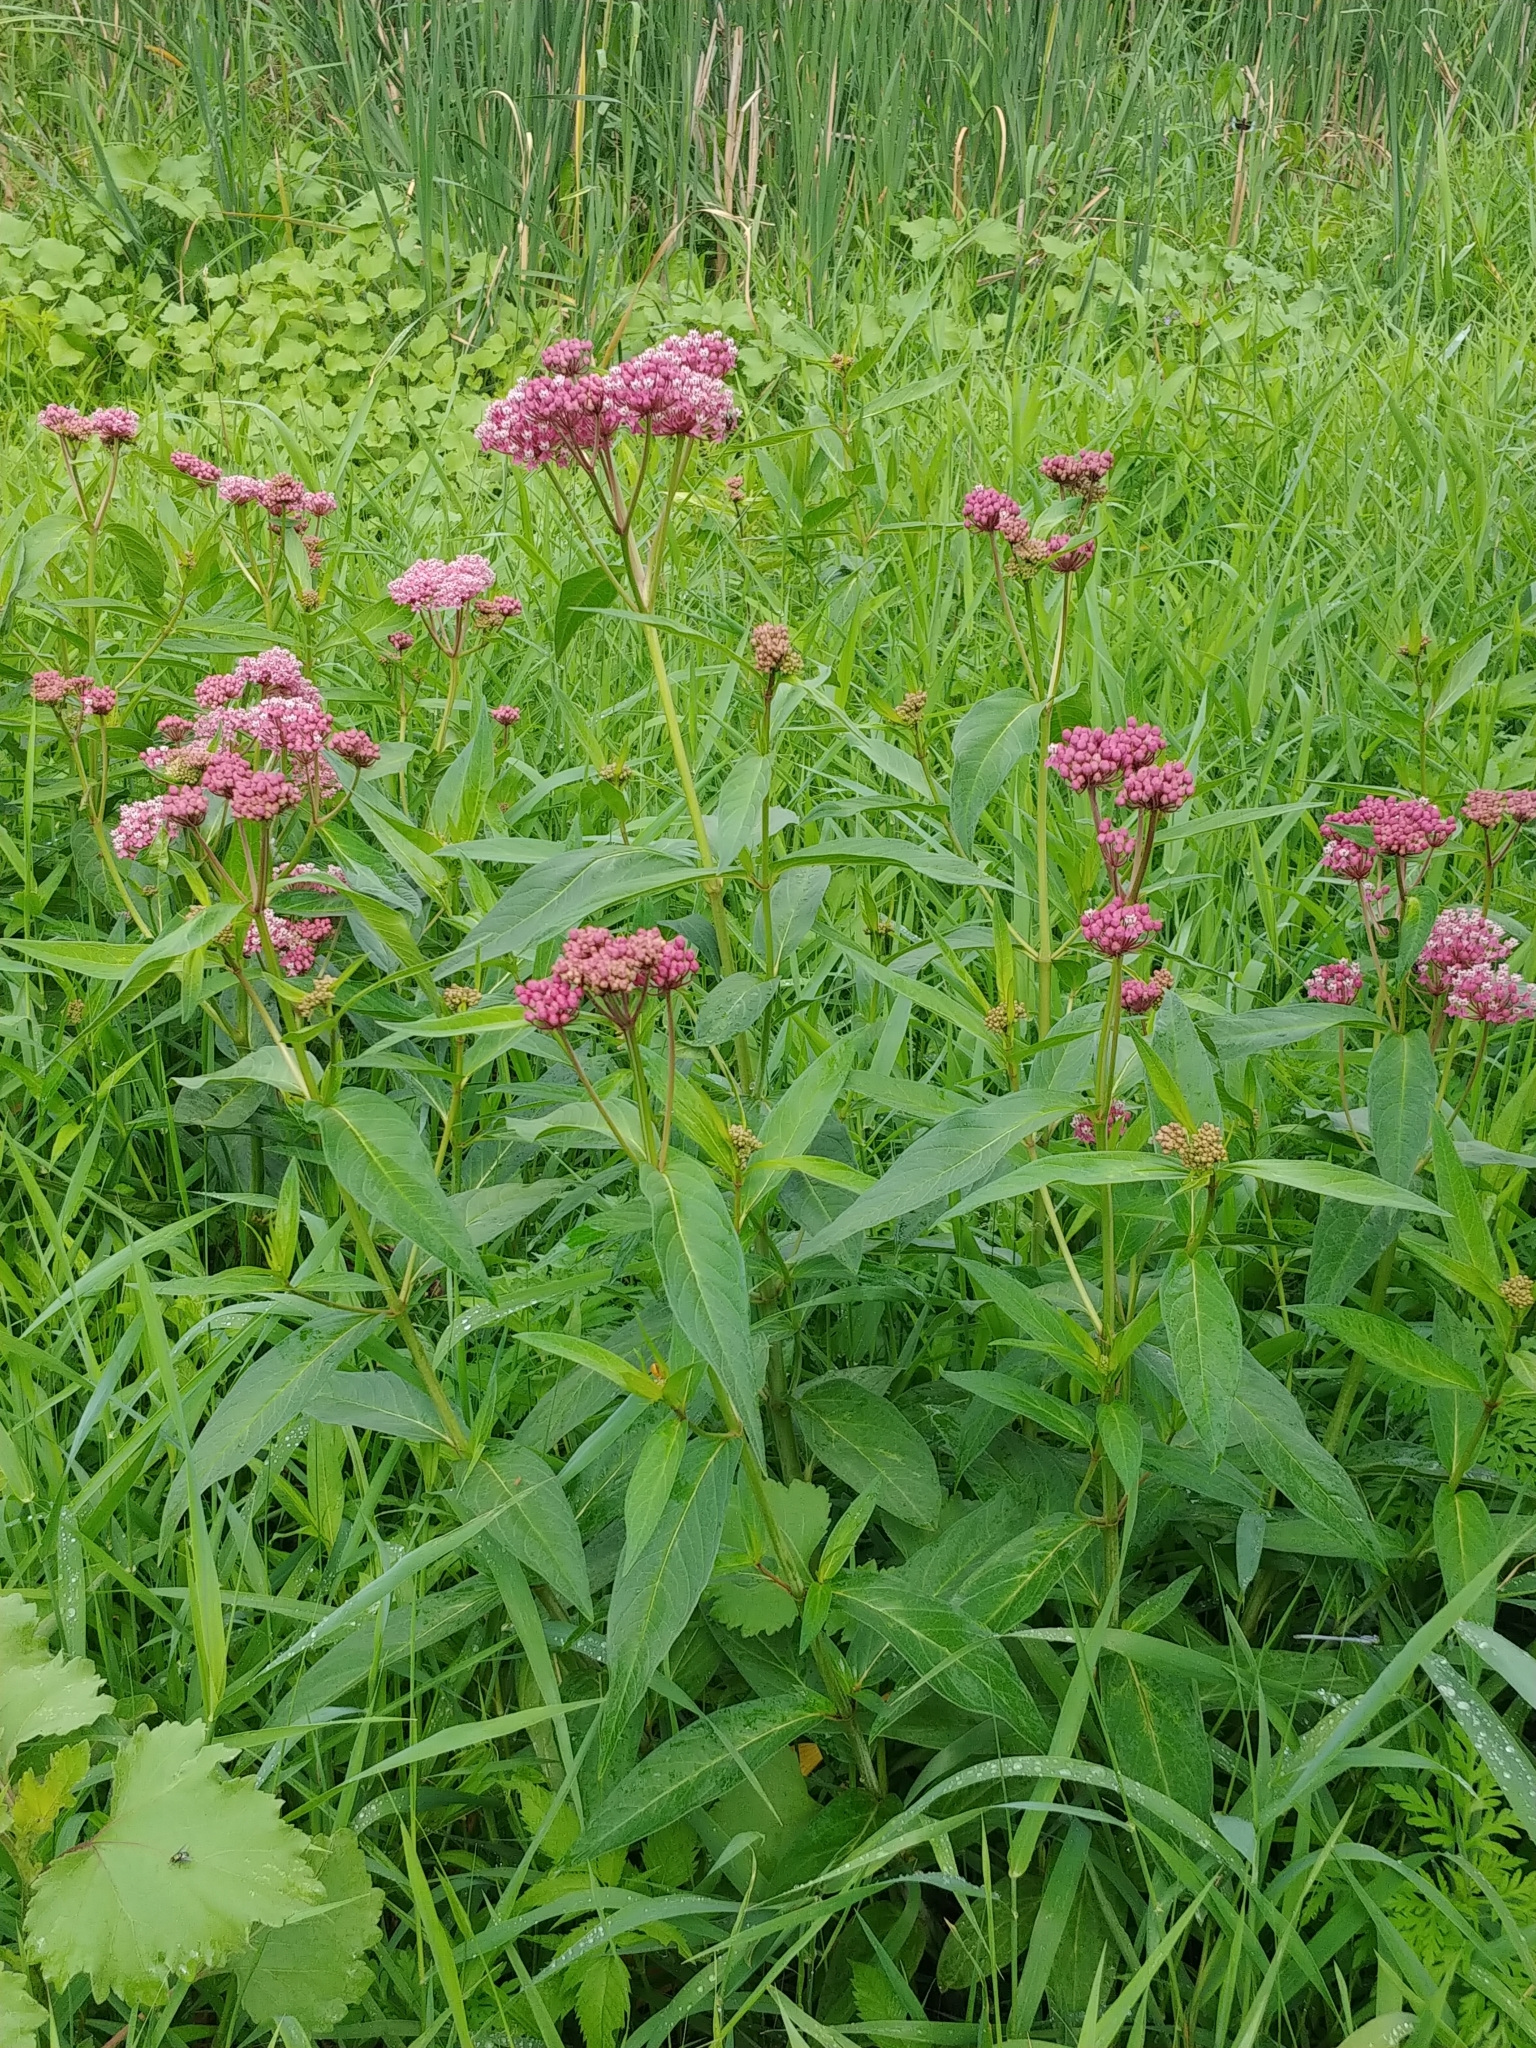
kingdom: Plantae
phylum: Tracheophyta
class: Magnoliopsida
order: Gentianales
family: Apocynaceae
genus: Asclepias
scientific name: Asclepias incarnata
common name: Swamp milkweed
